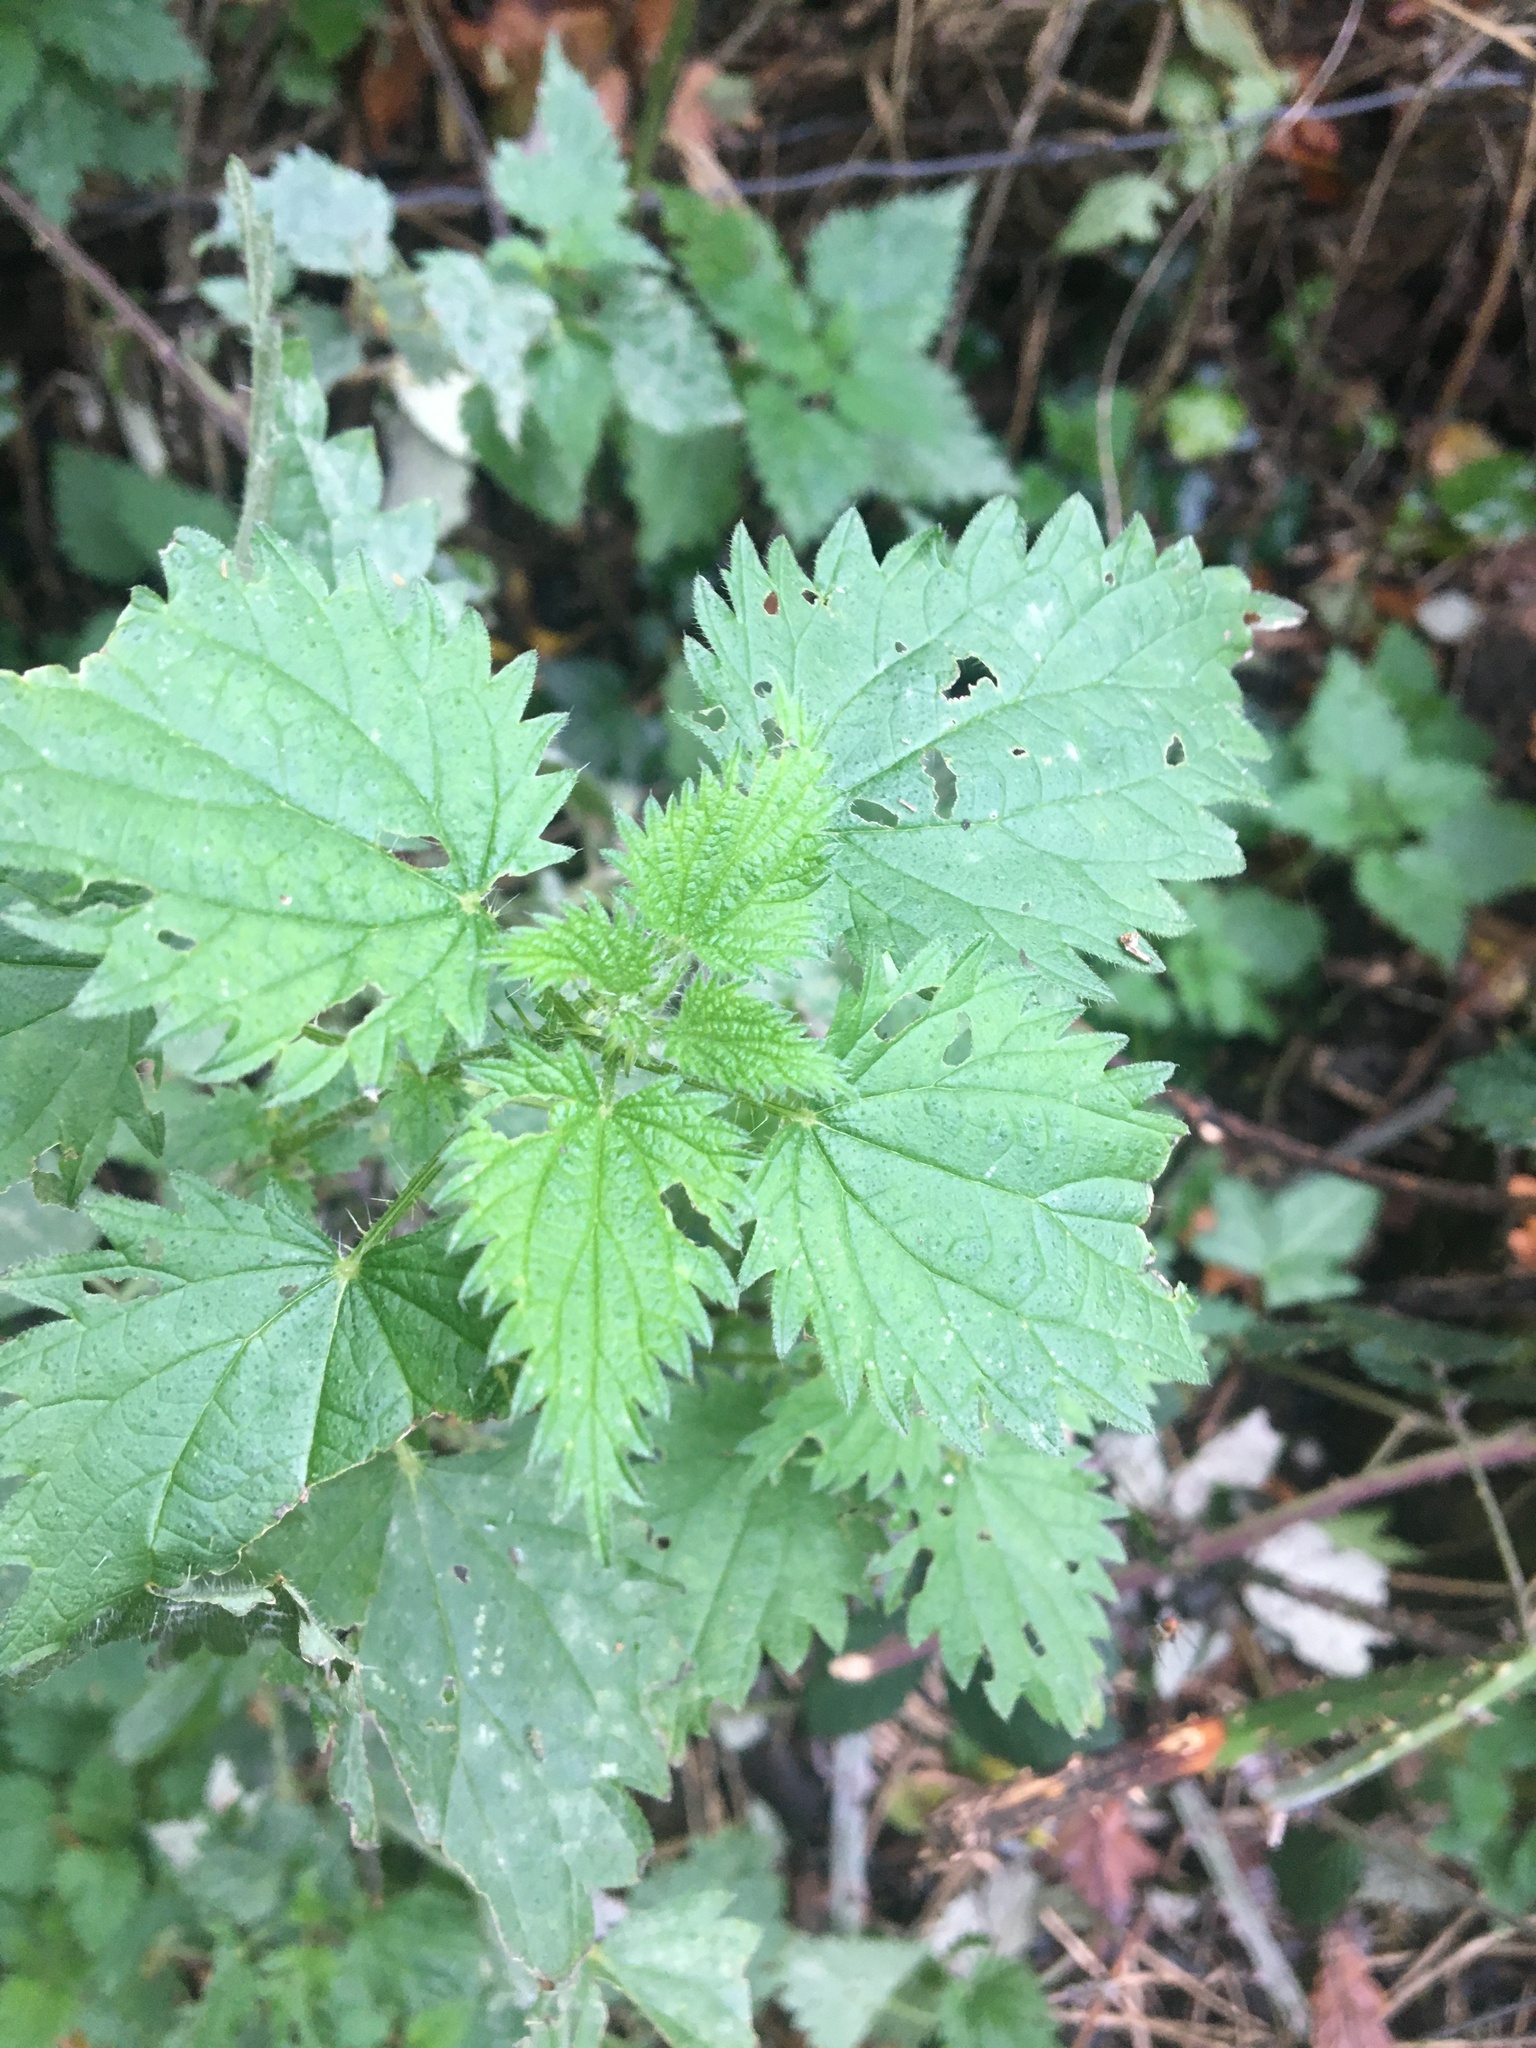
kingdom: Plantae
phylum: Tracheophyta
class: Magnoliopsida
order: Rosales
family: Urticaceae
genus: Urtica
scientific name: Urtica dioica
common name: Common nettle
